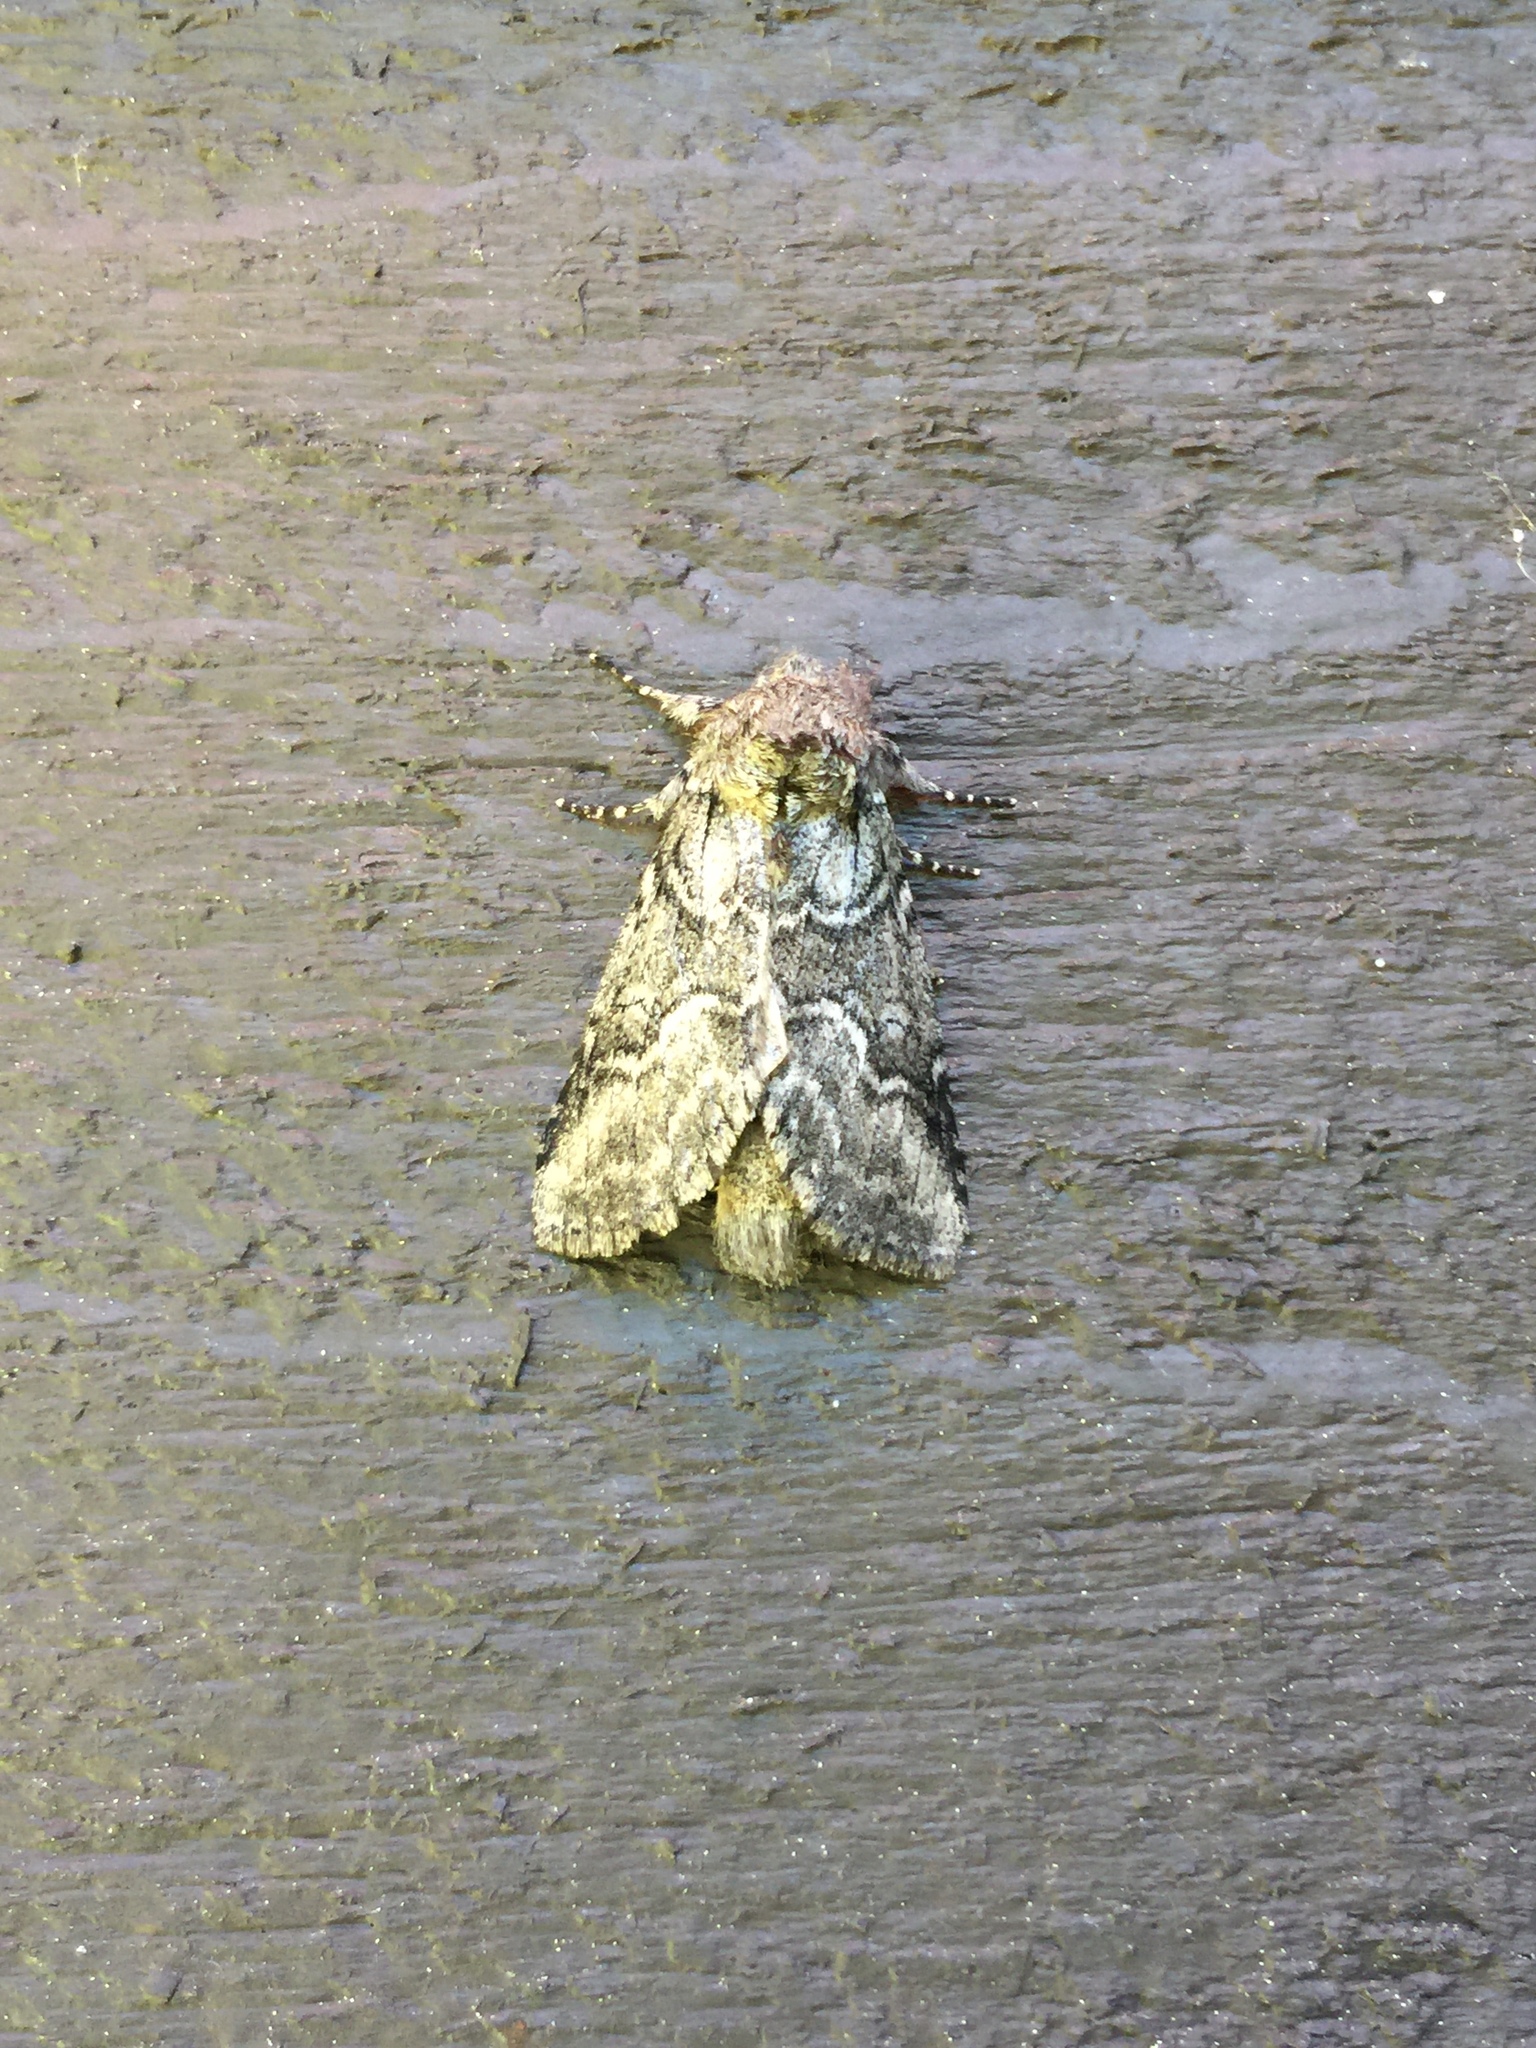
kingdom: Animalia
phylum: Arthropoda
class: Insecta
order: Lepidoptera
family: Notodontidae
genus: Lochmaeus
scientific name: Lochmaeus bilineata
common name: Double-lined prominent
